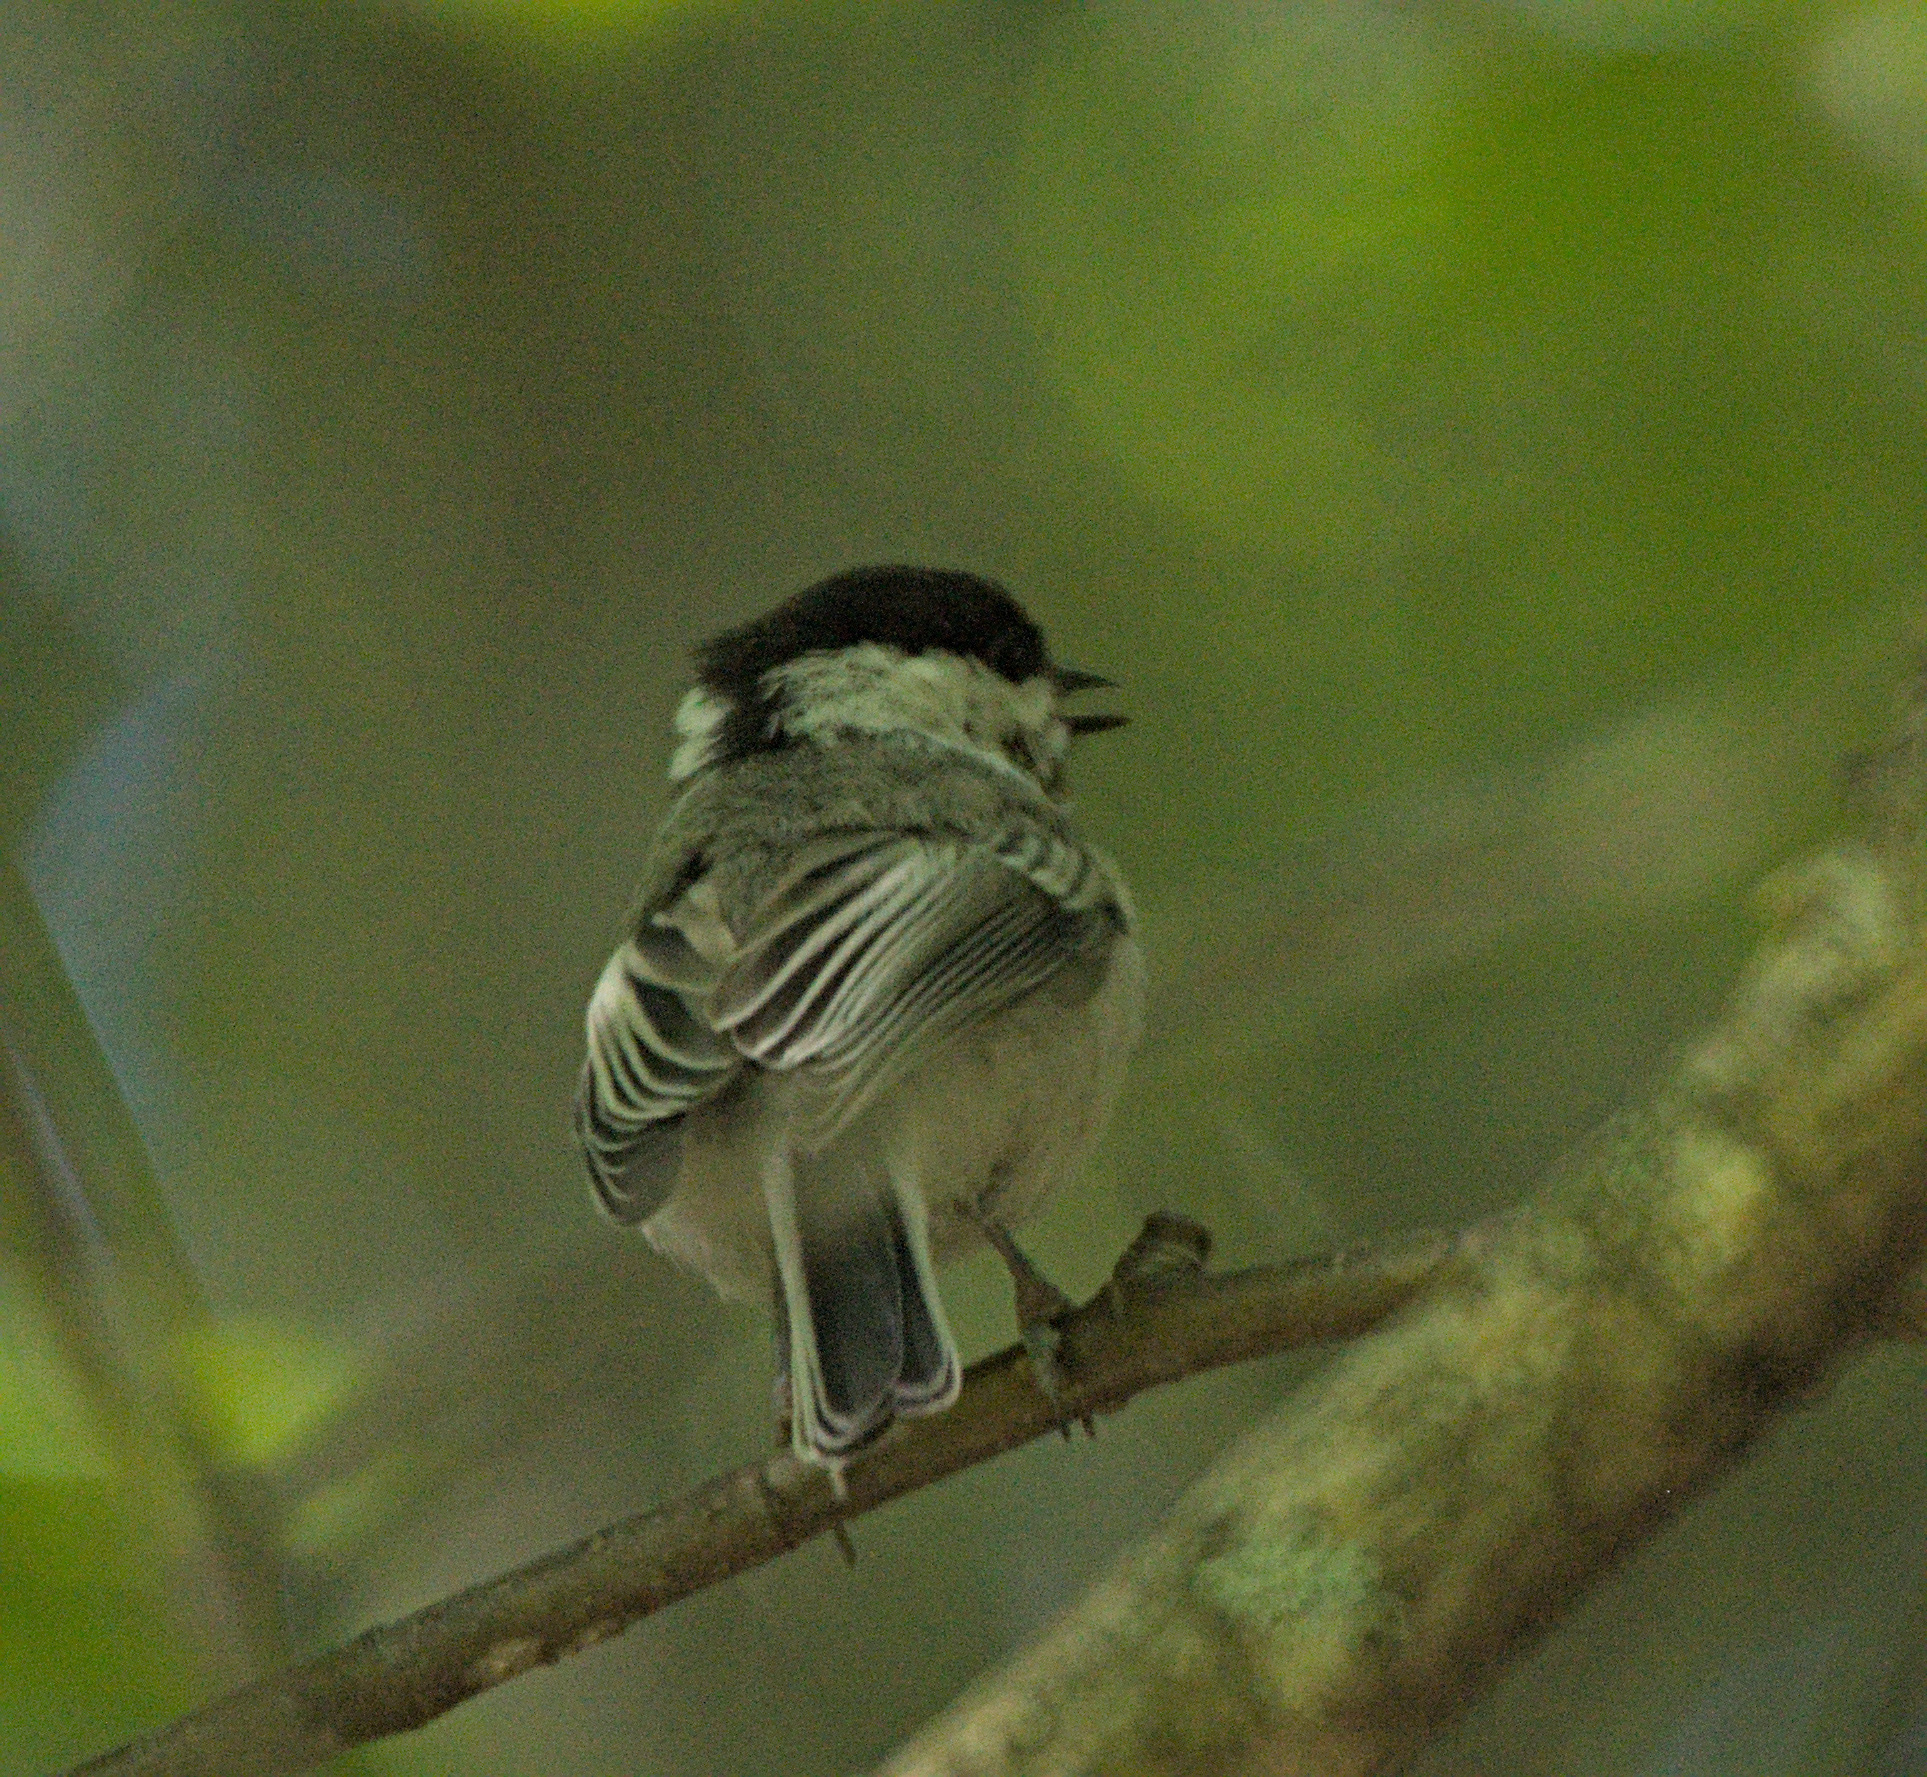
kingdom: Animalia
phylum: Chordata
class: Aves
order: Passeriformes
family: Paridae
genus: Poecile
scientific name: Poecile montanus
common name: Willow tit
